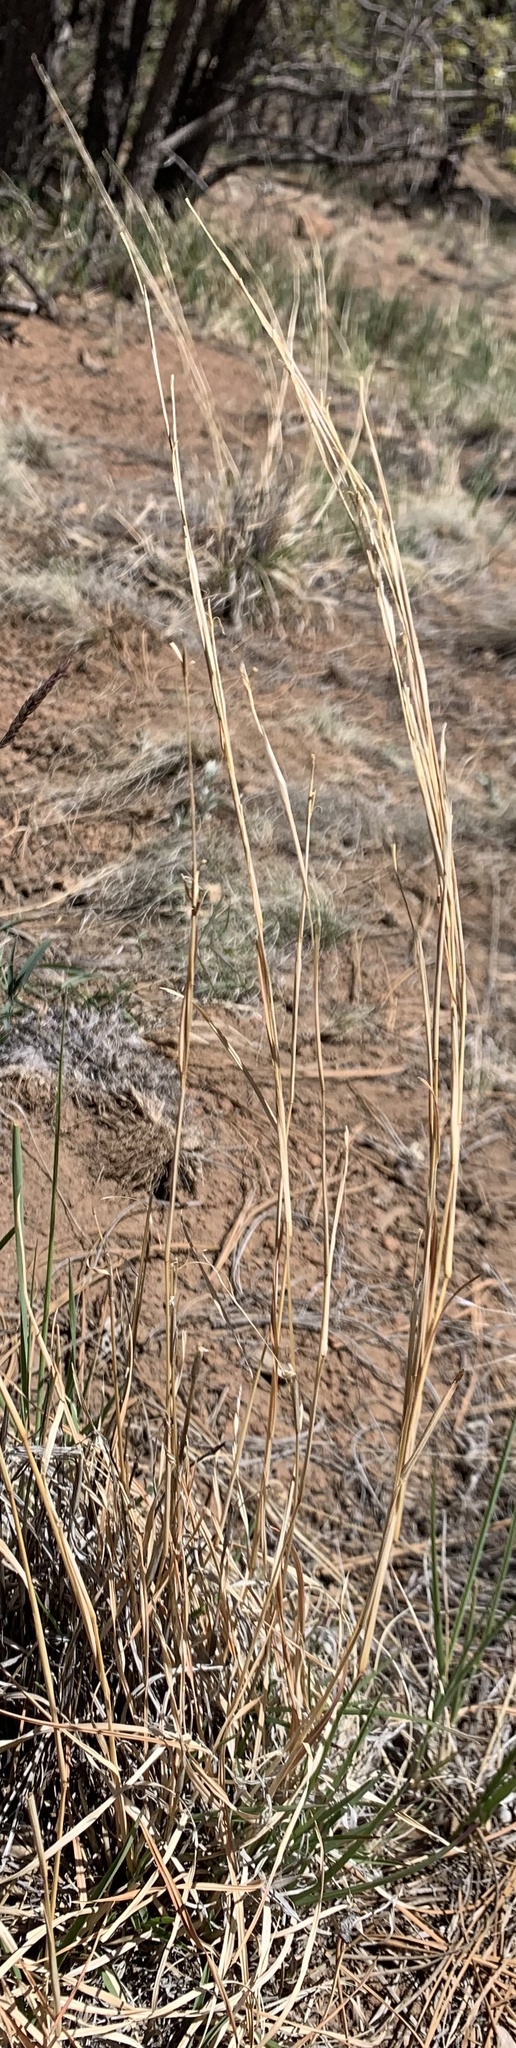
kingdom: Plantae
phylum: Tracheophyta
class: Liliopsida
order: Poales
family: Poaceae
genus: Schizachyrium
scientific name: Schizachyrium scoparium
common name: Little bluestem
